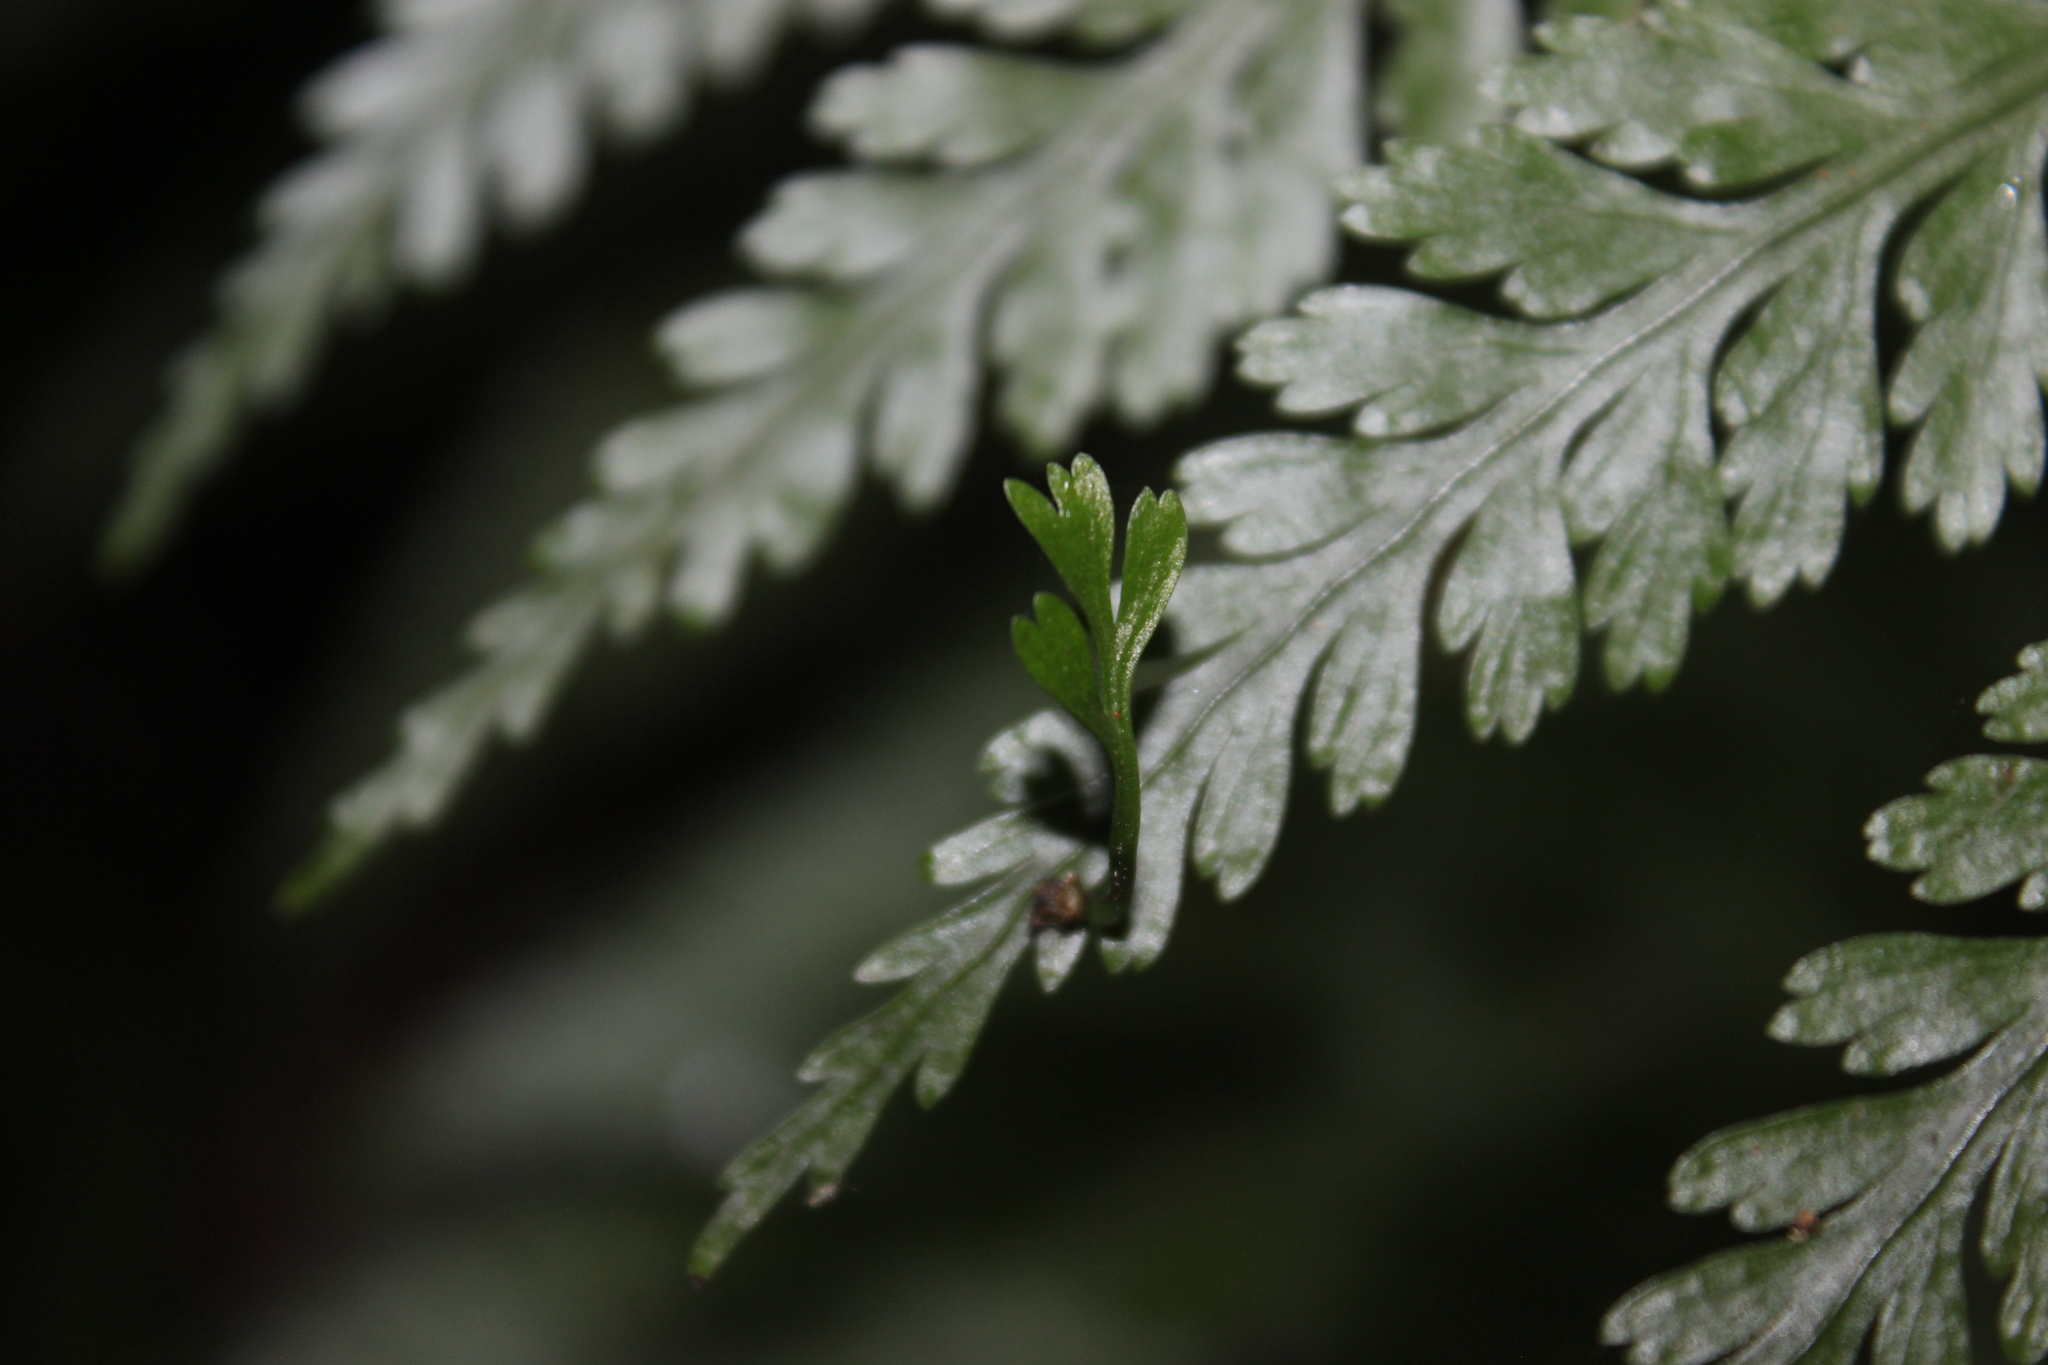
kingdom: Plantae
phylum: Tracheophyta
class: Polypodiopsida
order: Polypodiales
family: Aspleniaceae
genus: Asplenium
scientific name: Asplenium
